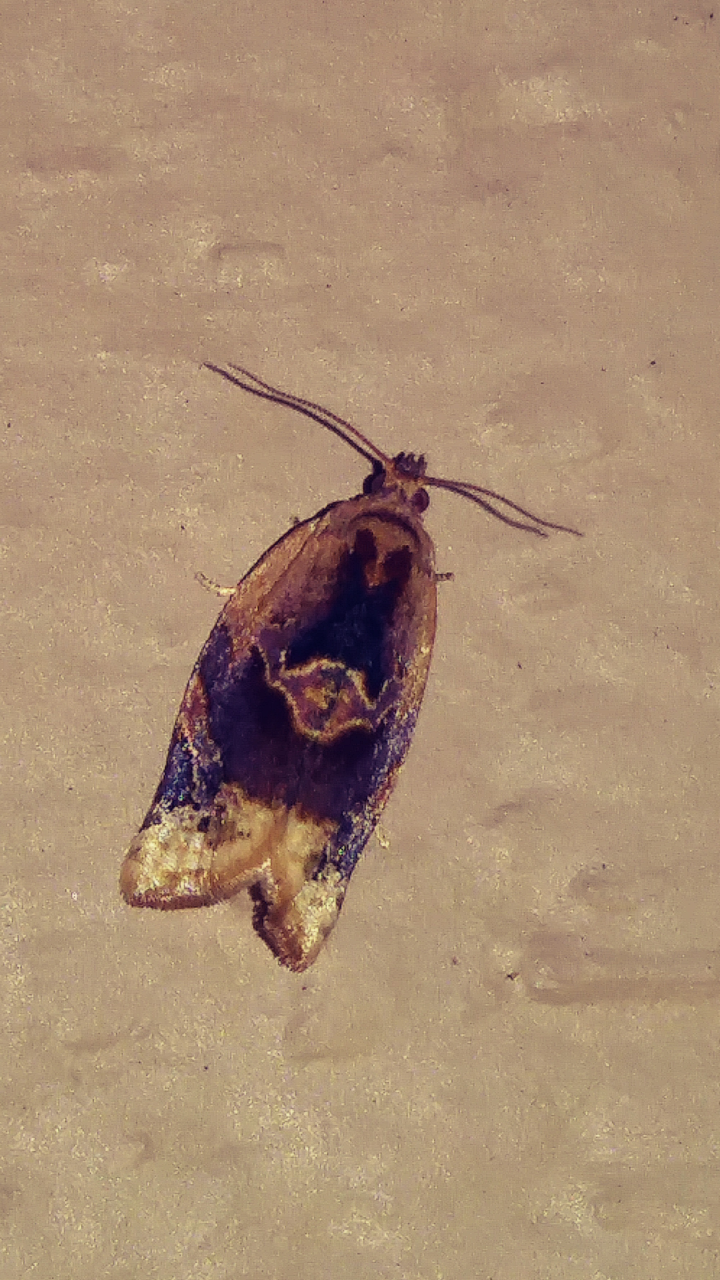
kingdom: Animalia
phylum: Arthropoda
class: Insecta
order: Lepidoptera
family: Tortricidae
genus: Argyrotaenia
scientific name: Argyrotaenia velutinana
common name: Red-banded leafroller moth
